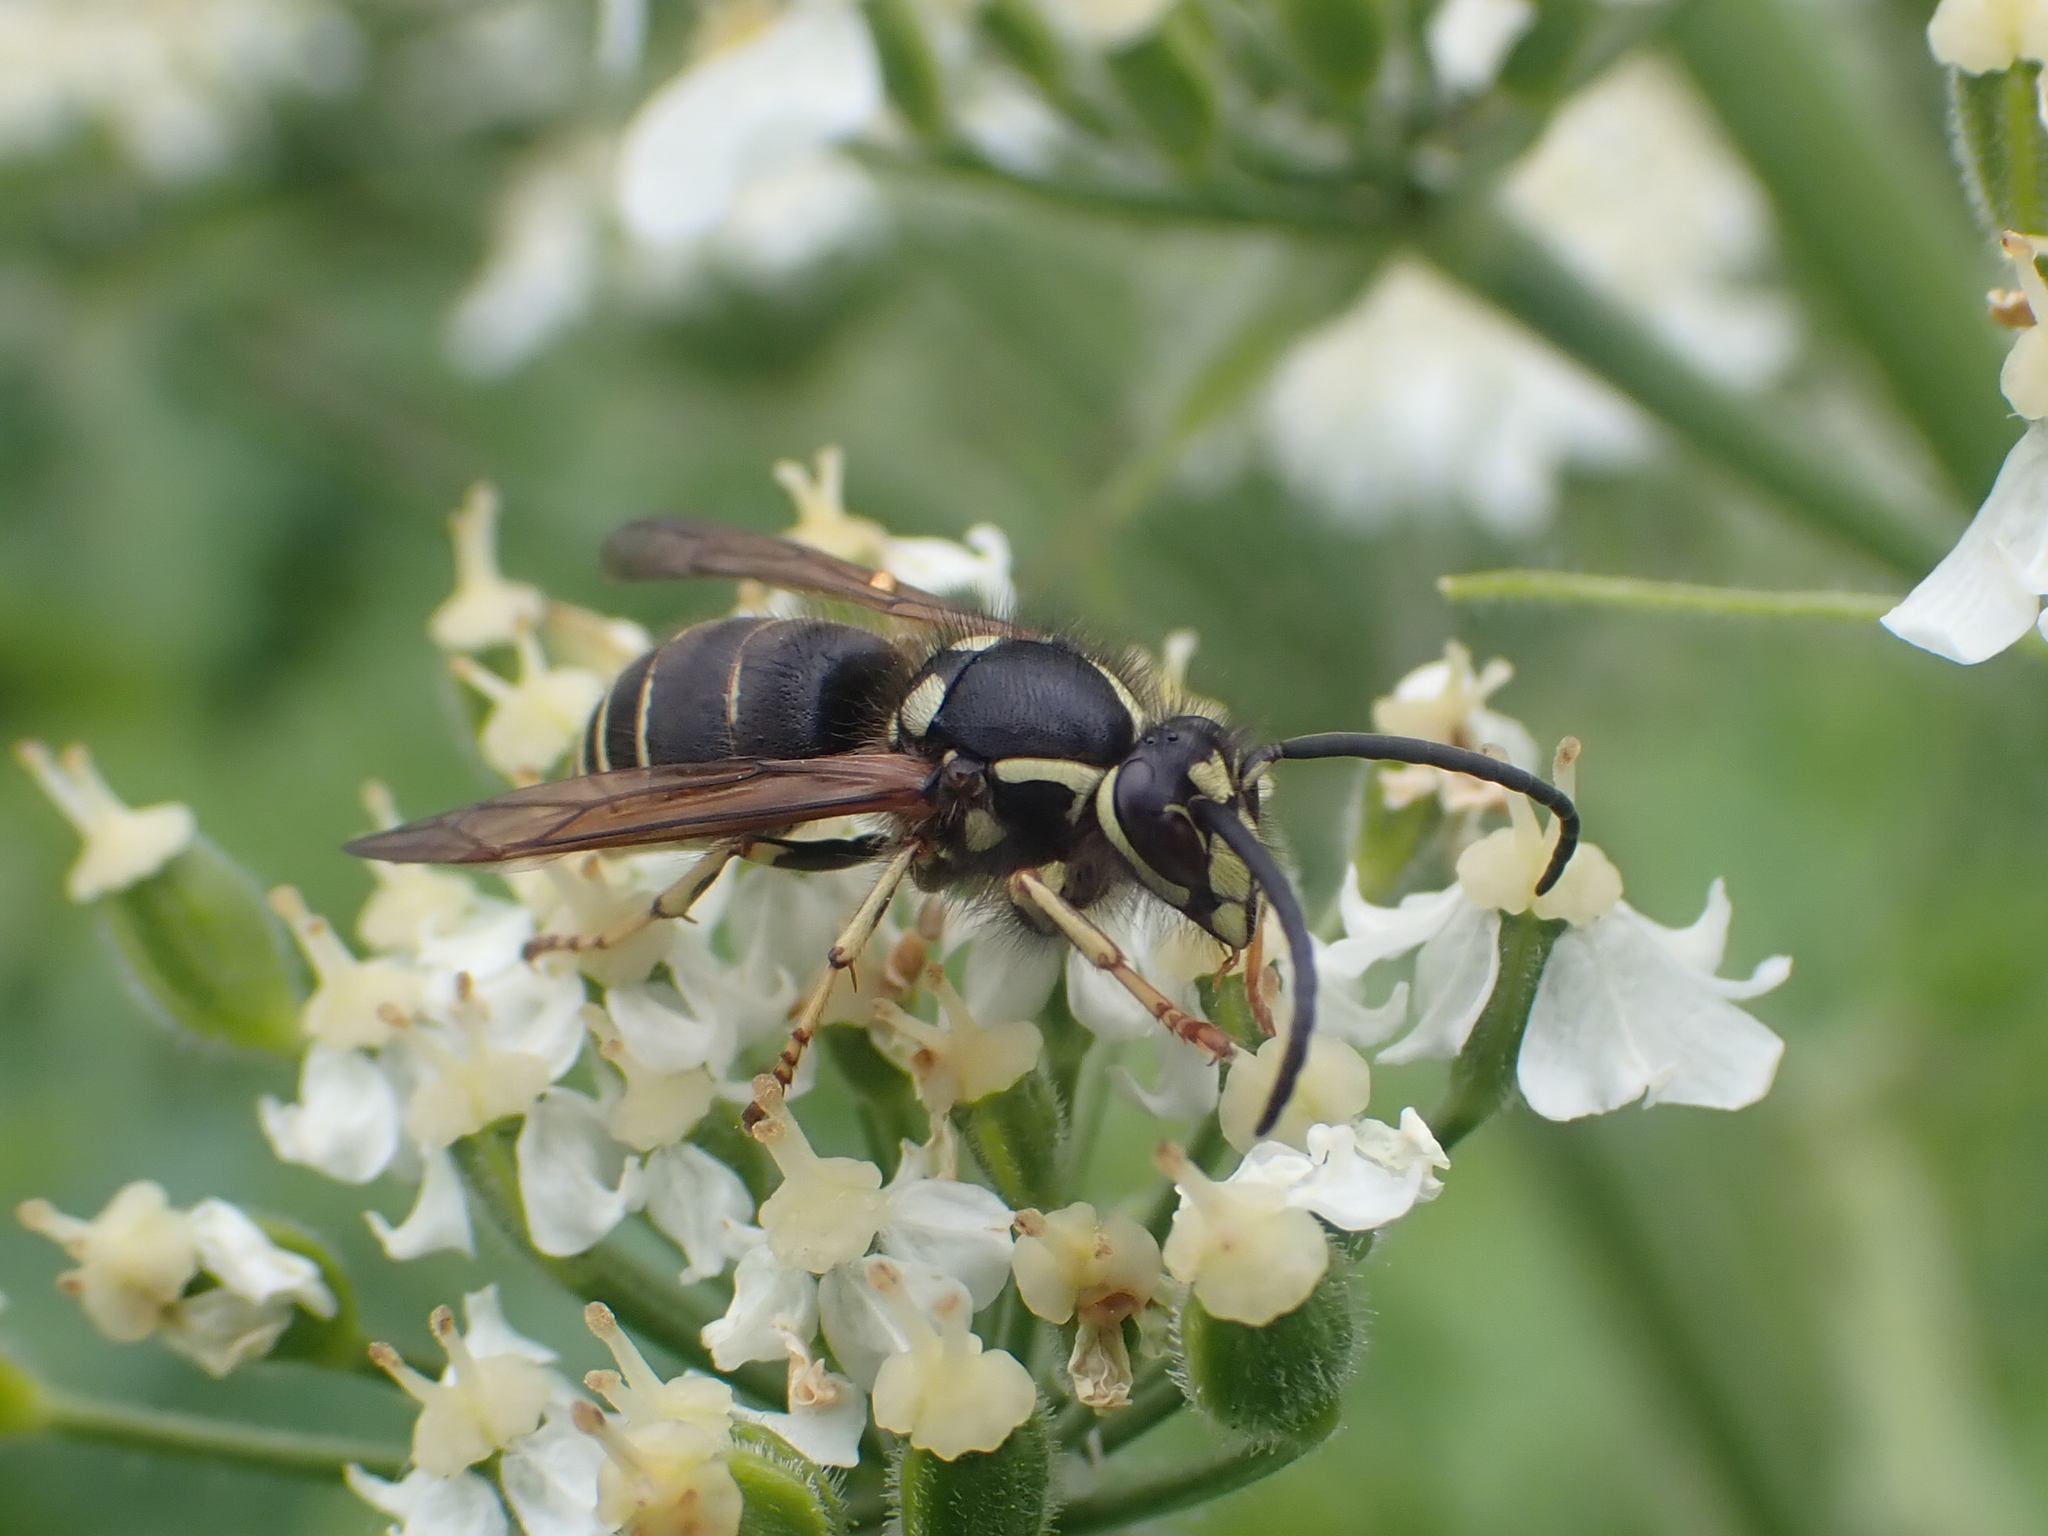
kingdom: Animalia
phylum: Arthropoda
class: Insecta
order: Hymenoptera
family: Vespidae
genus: Dolichovespula
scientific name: Dolichovespula adulterina
